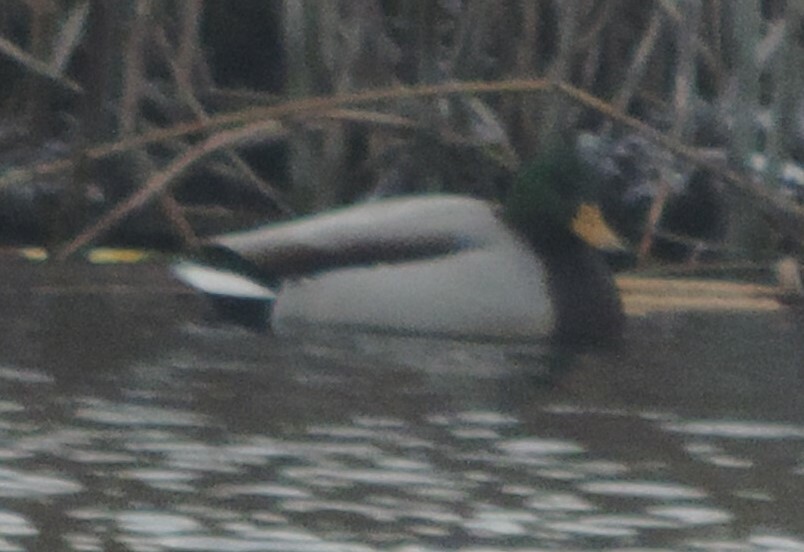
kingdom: Animalia
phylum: Chordata
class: Aves
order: Anseriformes
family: Anatidae
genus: Anas
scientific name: Anas platyrhynchos
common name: Mallard
